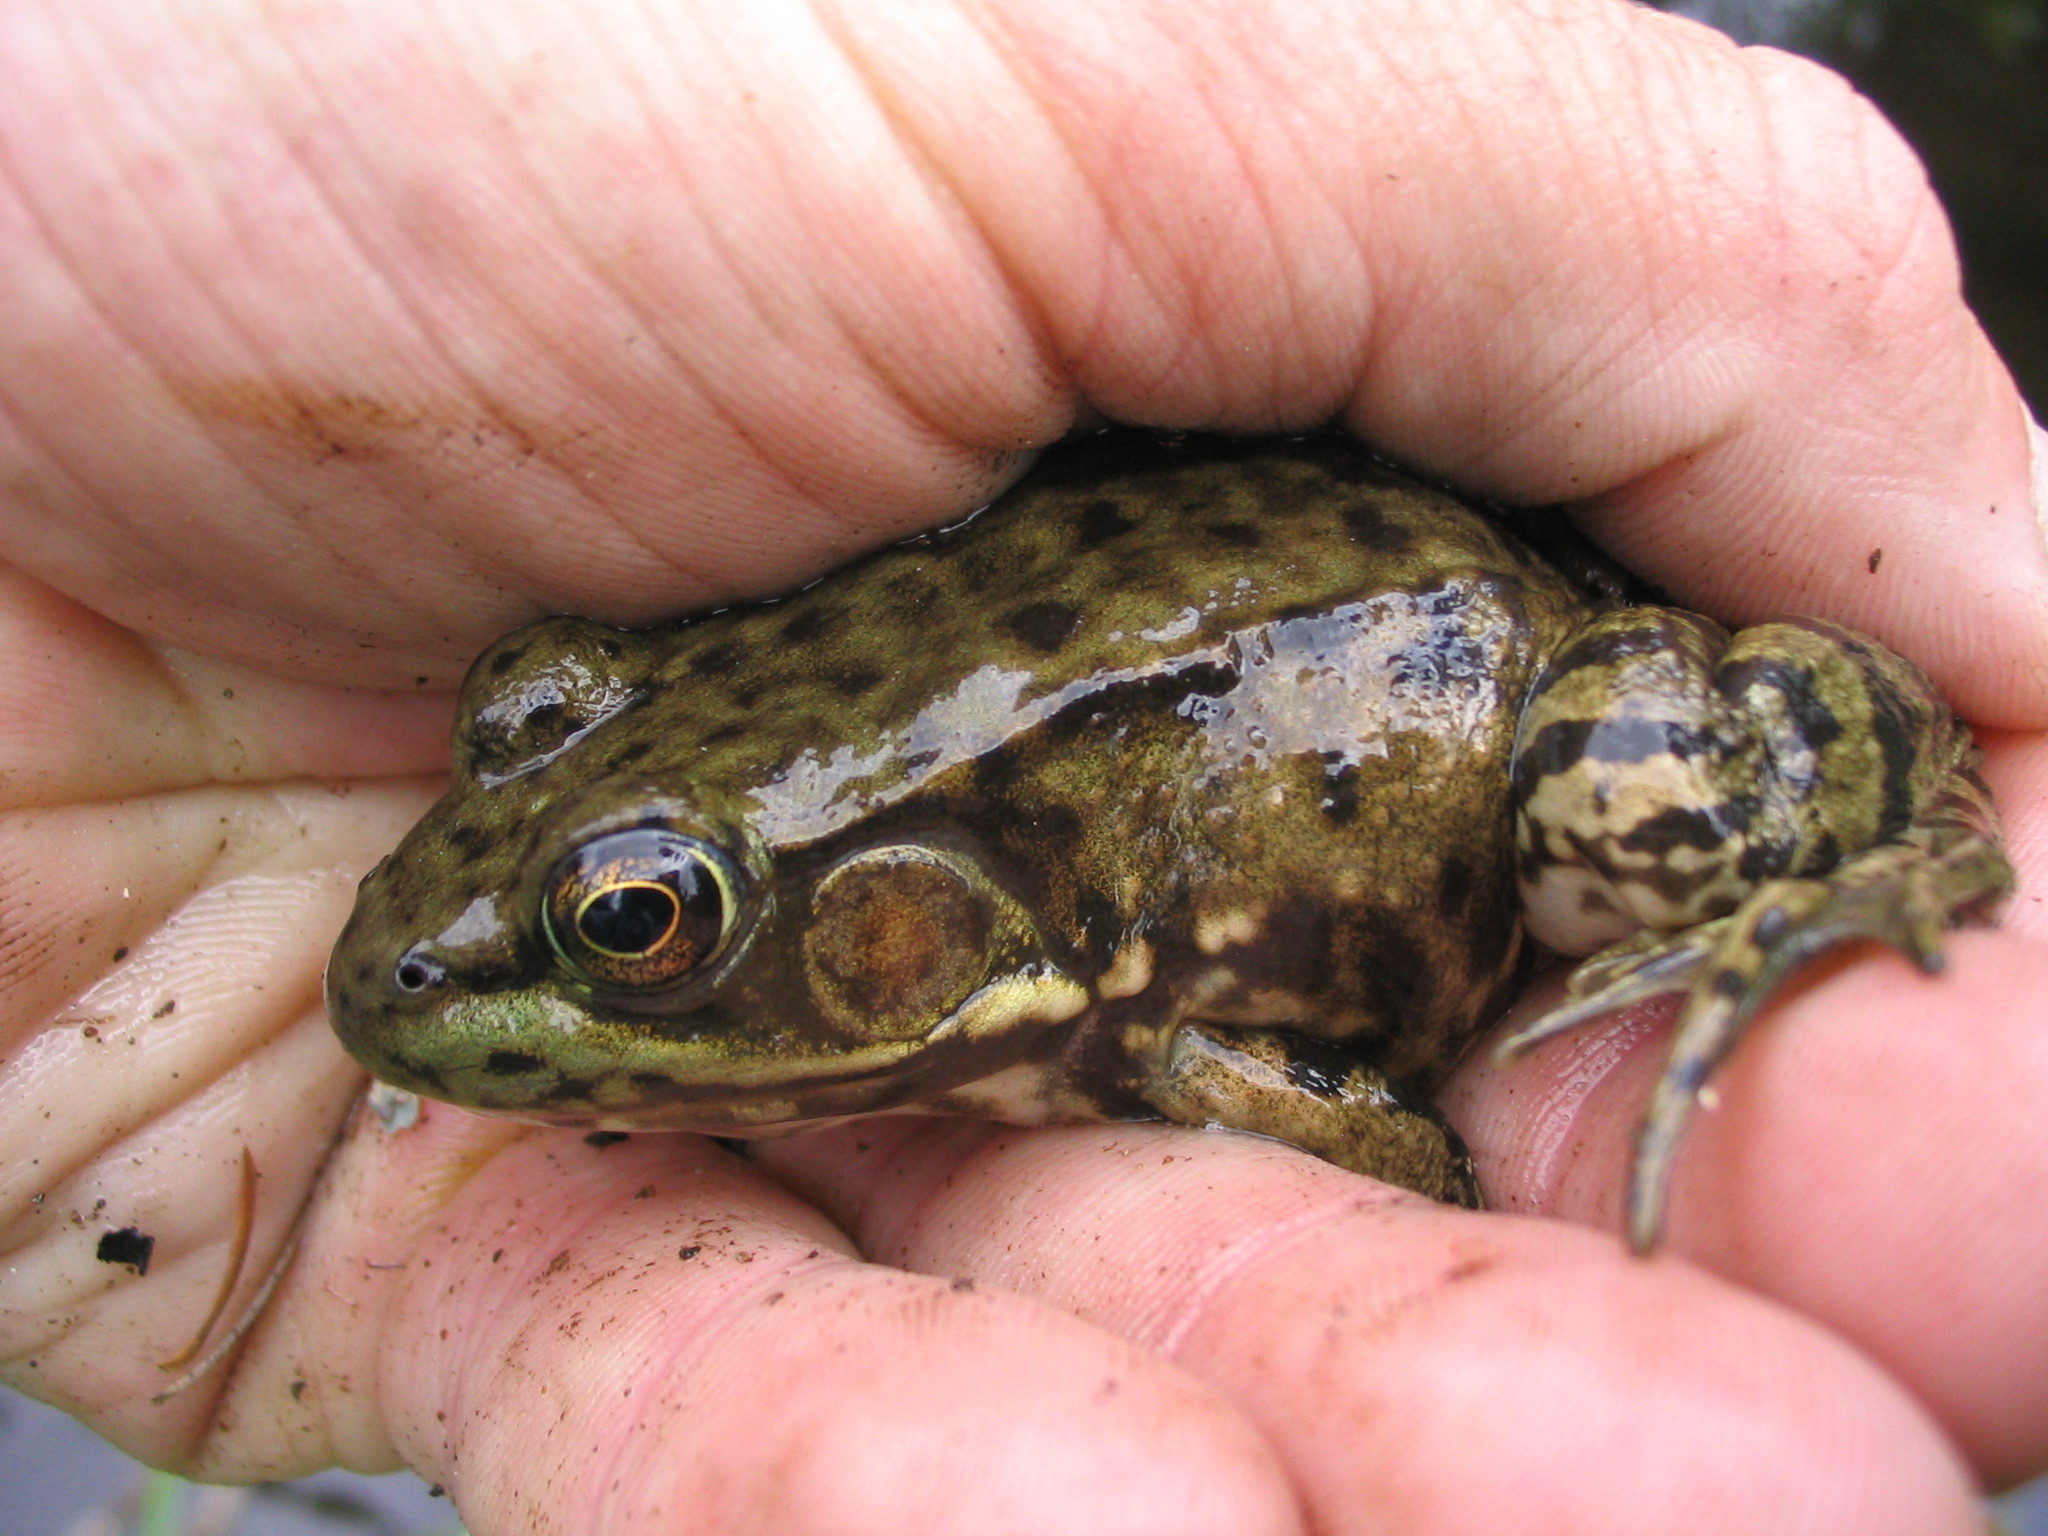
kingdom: Animalia
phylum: Chordata
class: Amphibia
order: Anura
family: Ranidae
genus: Lithobates
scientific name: Lithobates clamitans
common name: Green frog
